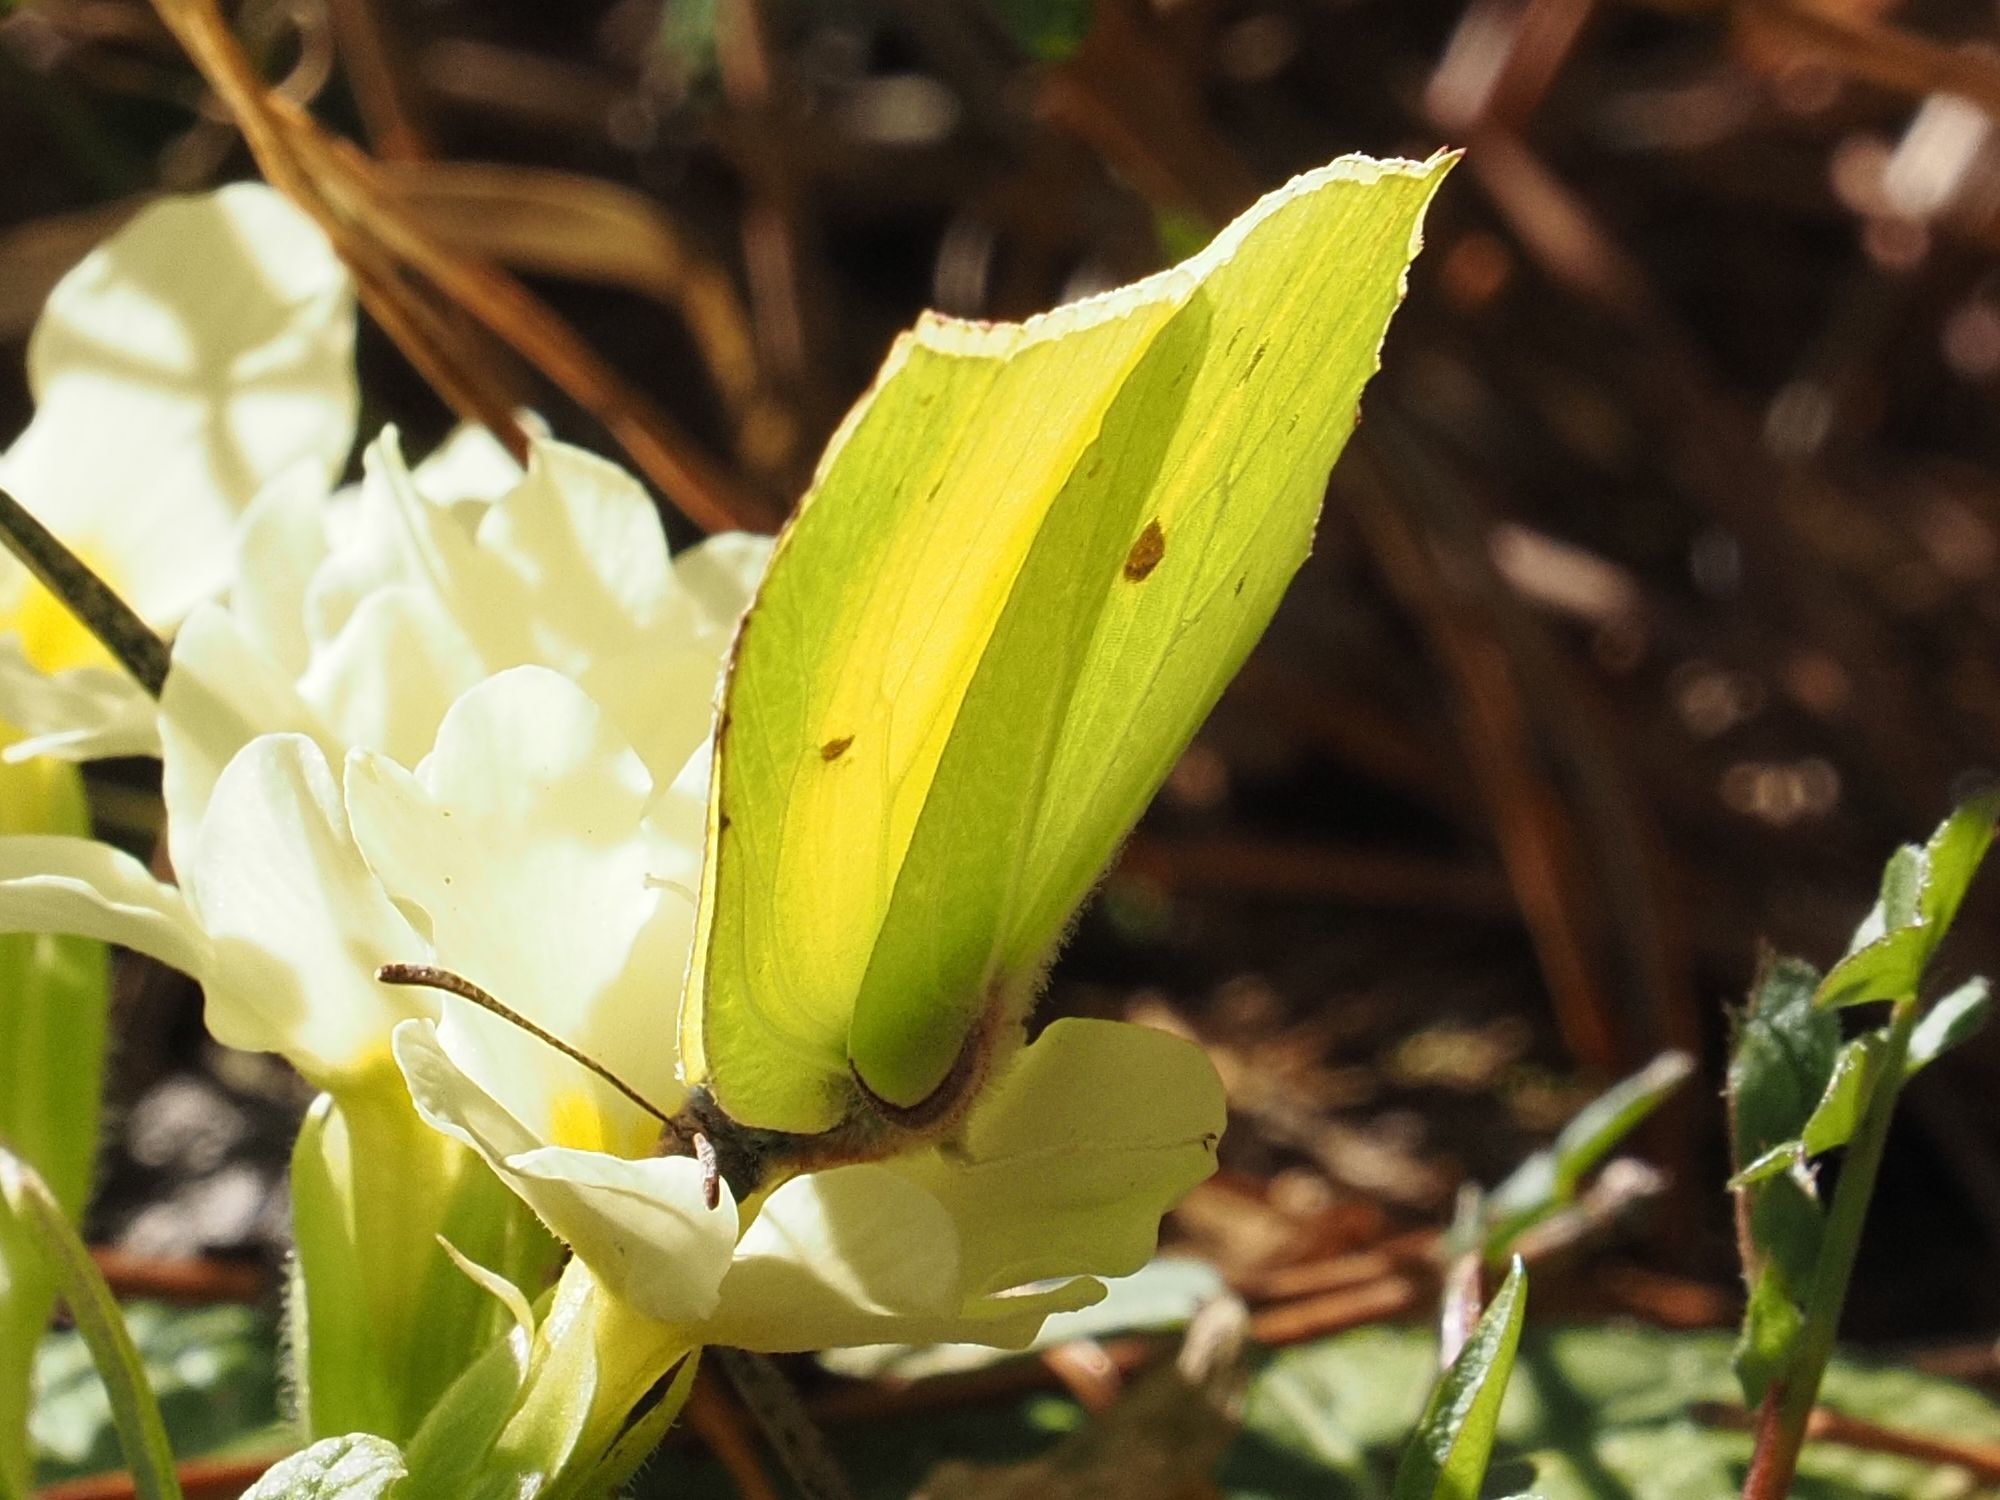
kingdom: Animalia
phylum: Arthropoda
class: Insecta
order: Lepidoptera
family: Pieridae
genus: Gonepteryx
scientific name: Gonepteryx rhamni
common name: Brimstone
